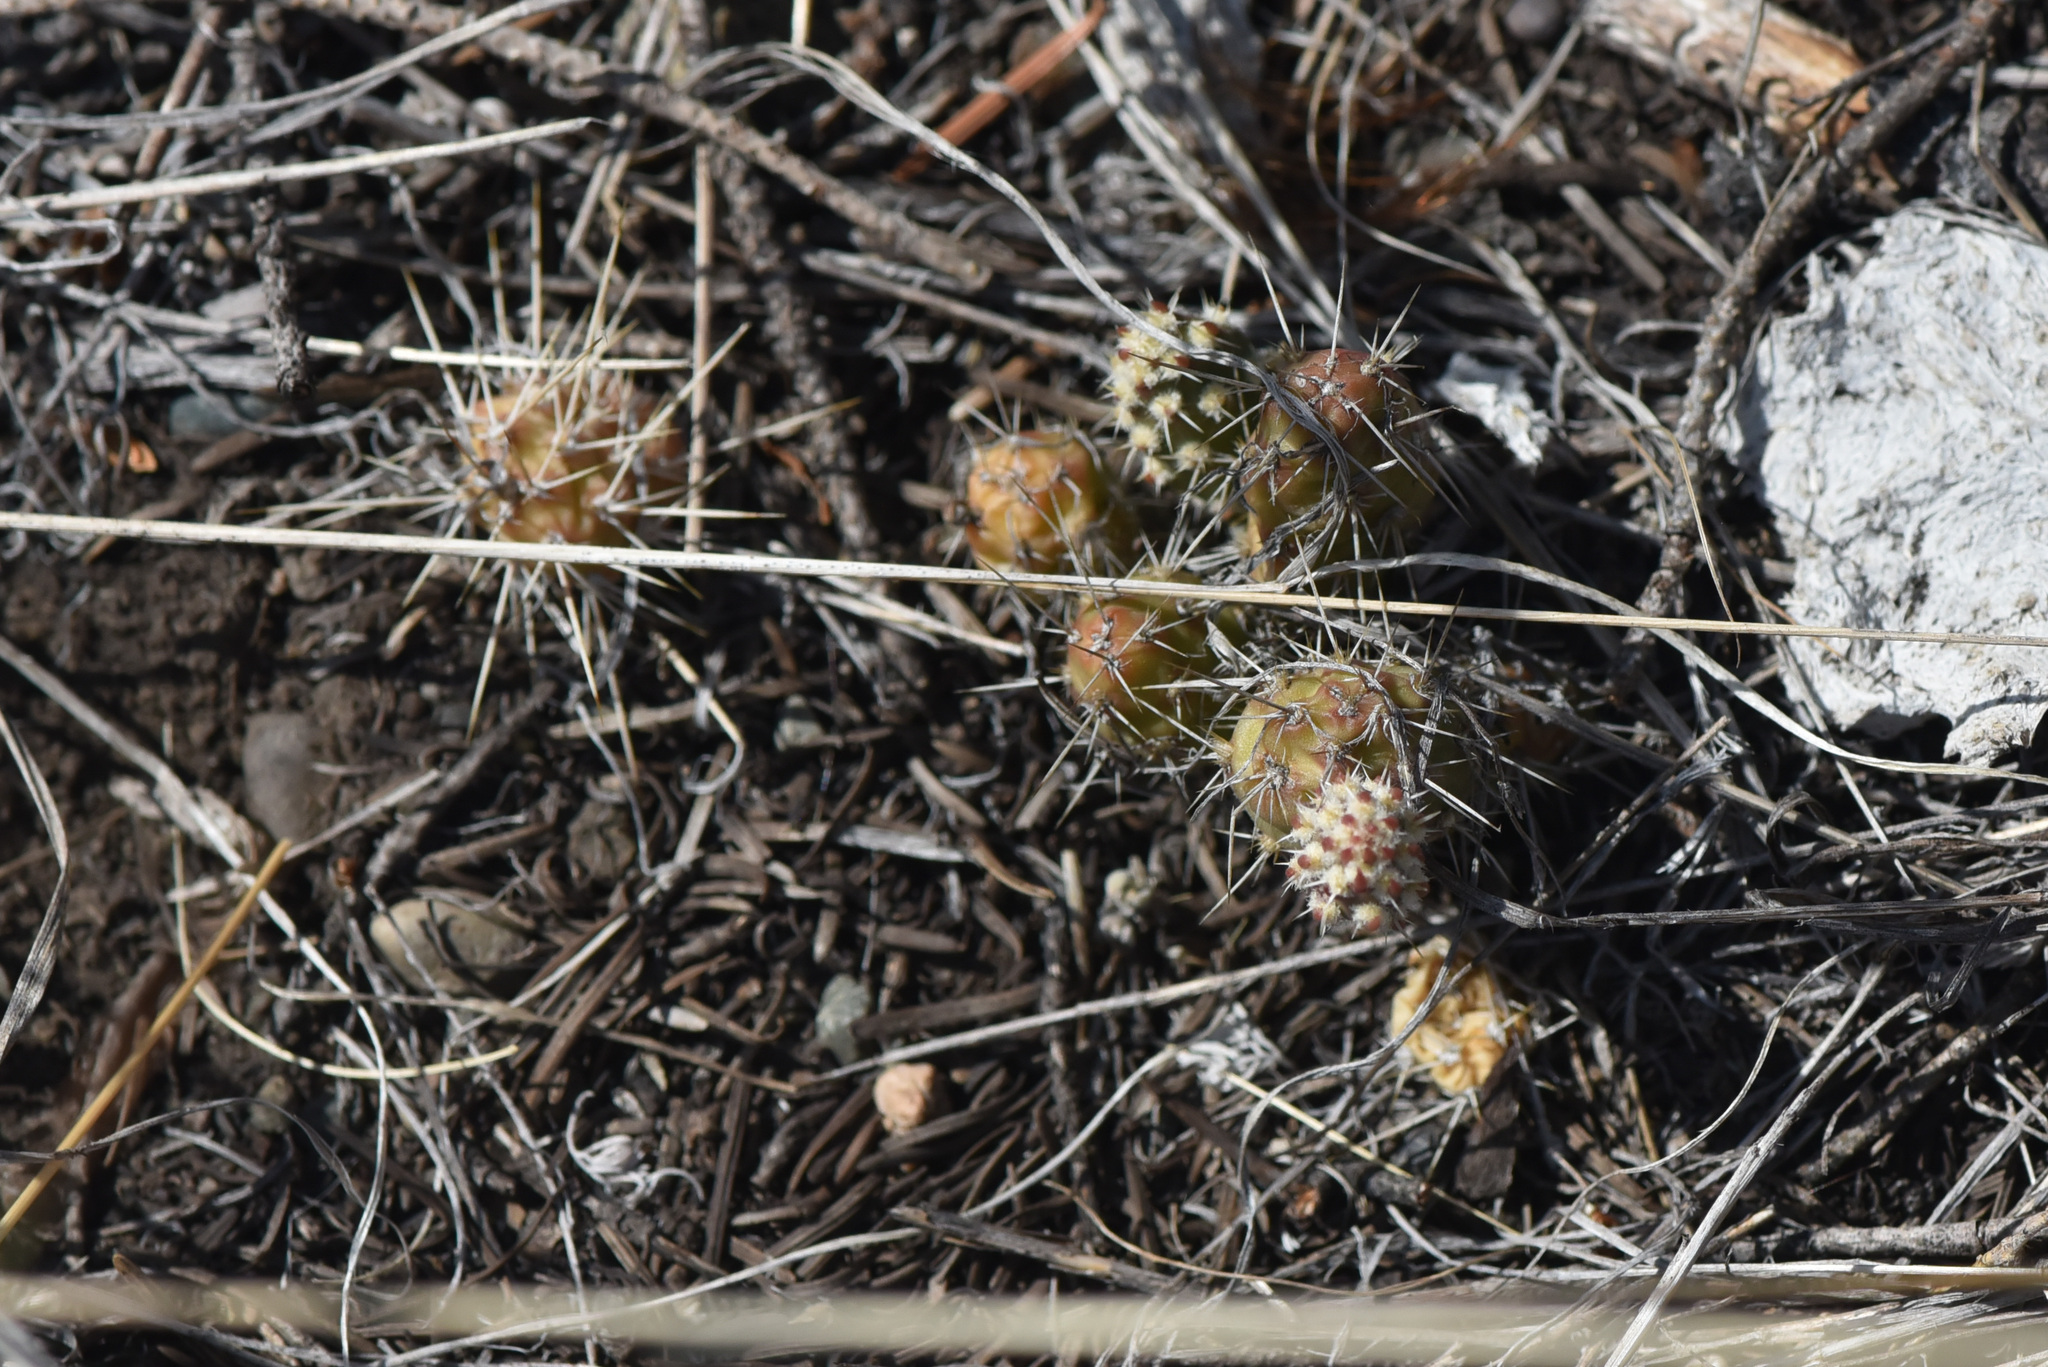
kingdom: Plantae
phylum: Tracheophyta
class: Magnoliopsida
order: Caryophyllales
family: Cactaceae
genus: Opuntia
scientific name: Opuntia fragilis
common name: Brittle cactus
